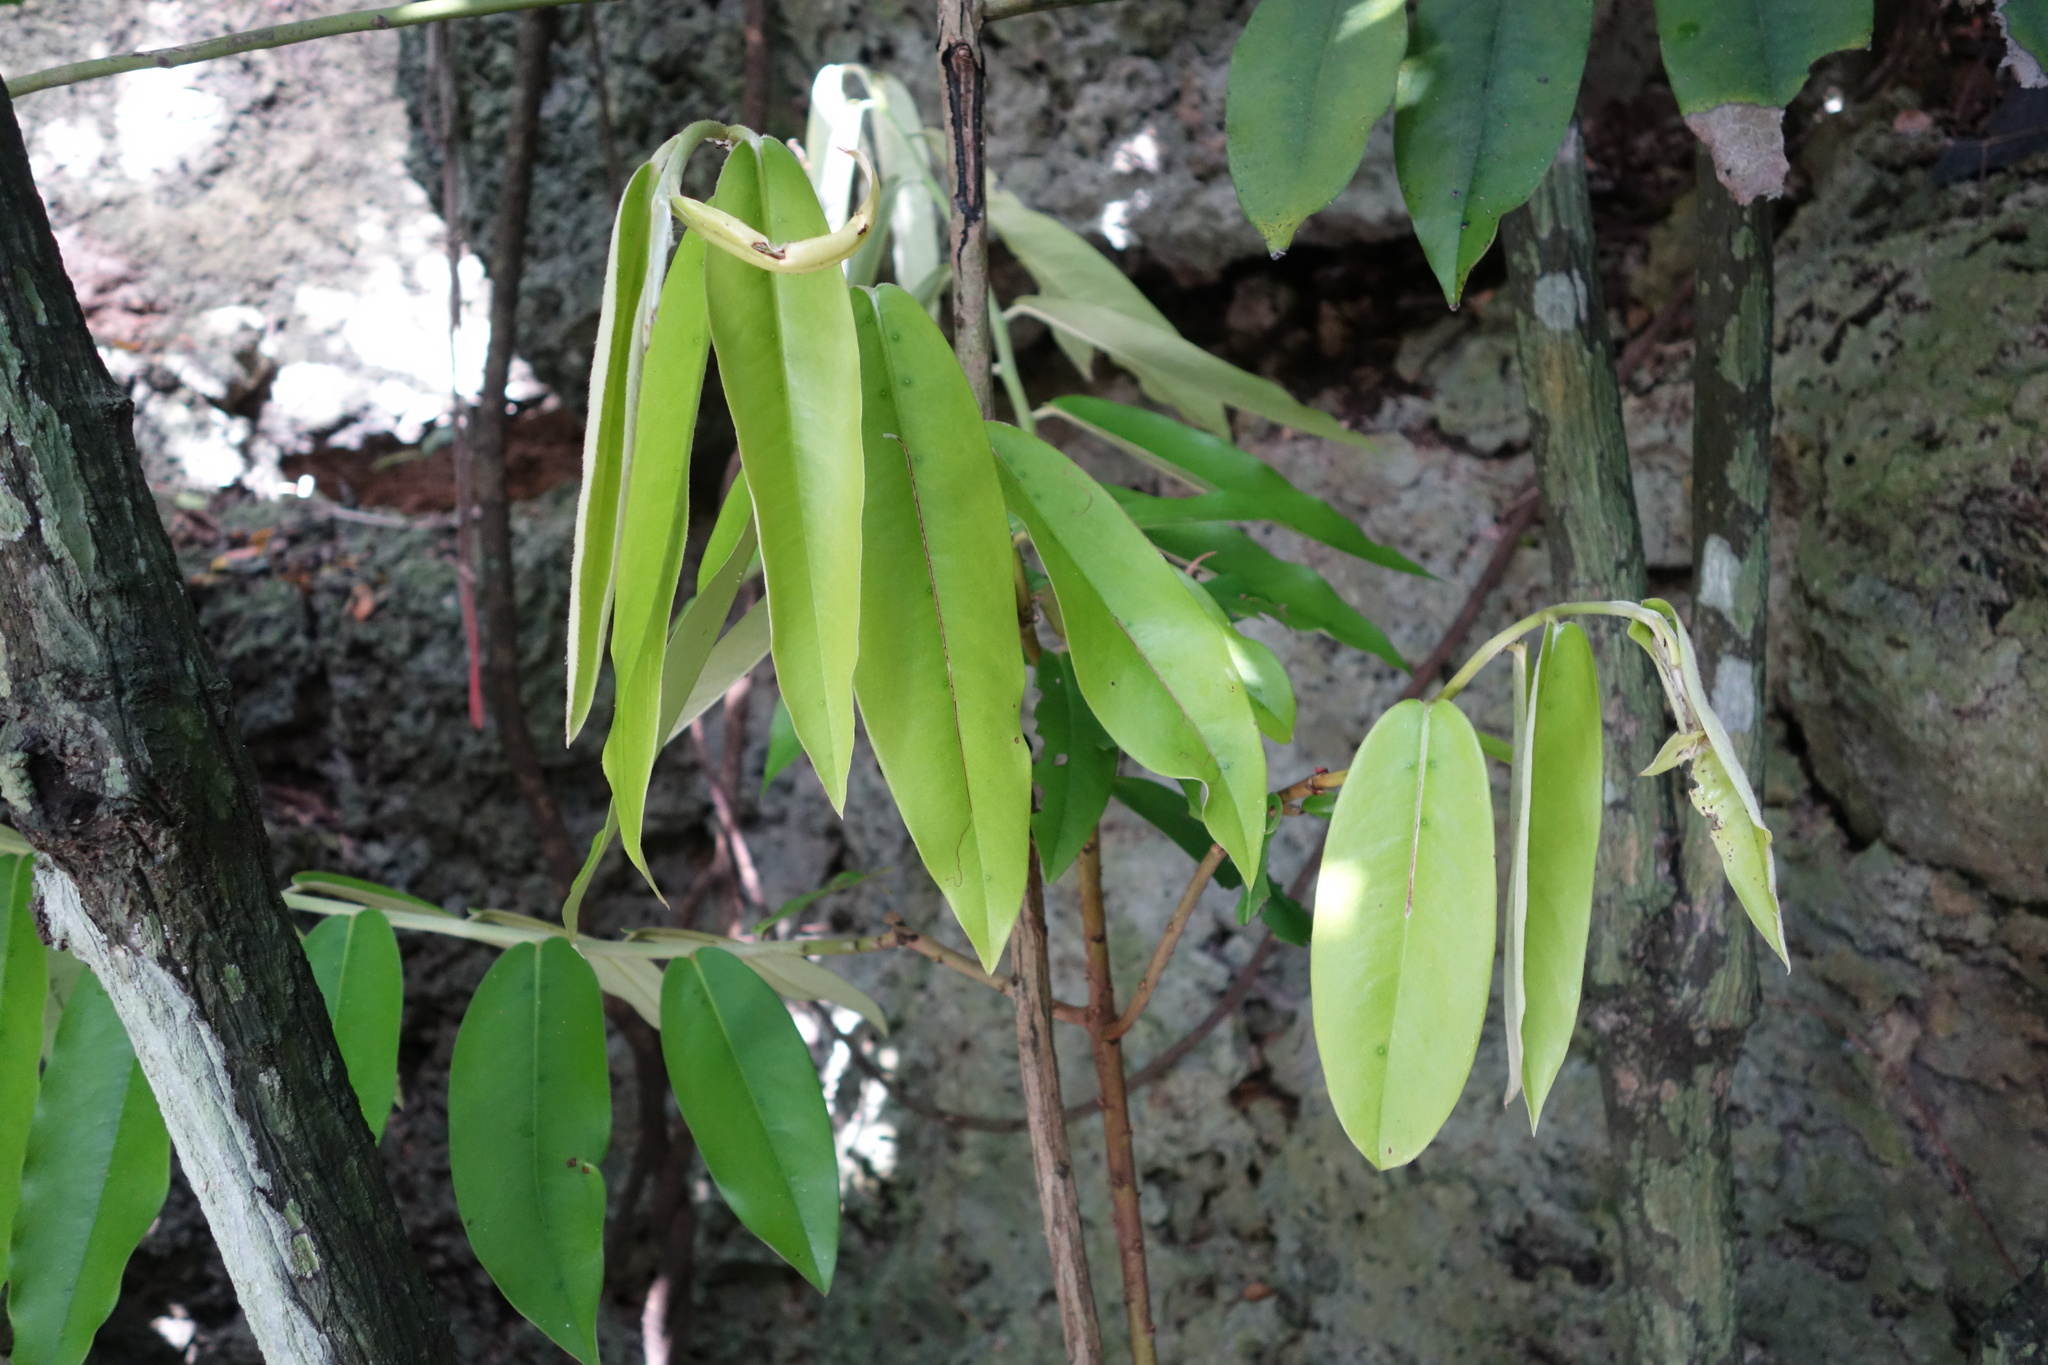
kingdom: Plantae
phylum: Tracheophyta
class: Magnoliopsida
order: Ericales
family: Ebenaceae
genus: Diospyros
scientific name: Diospyros blancoi
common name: Mabola-tree
